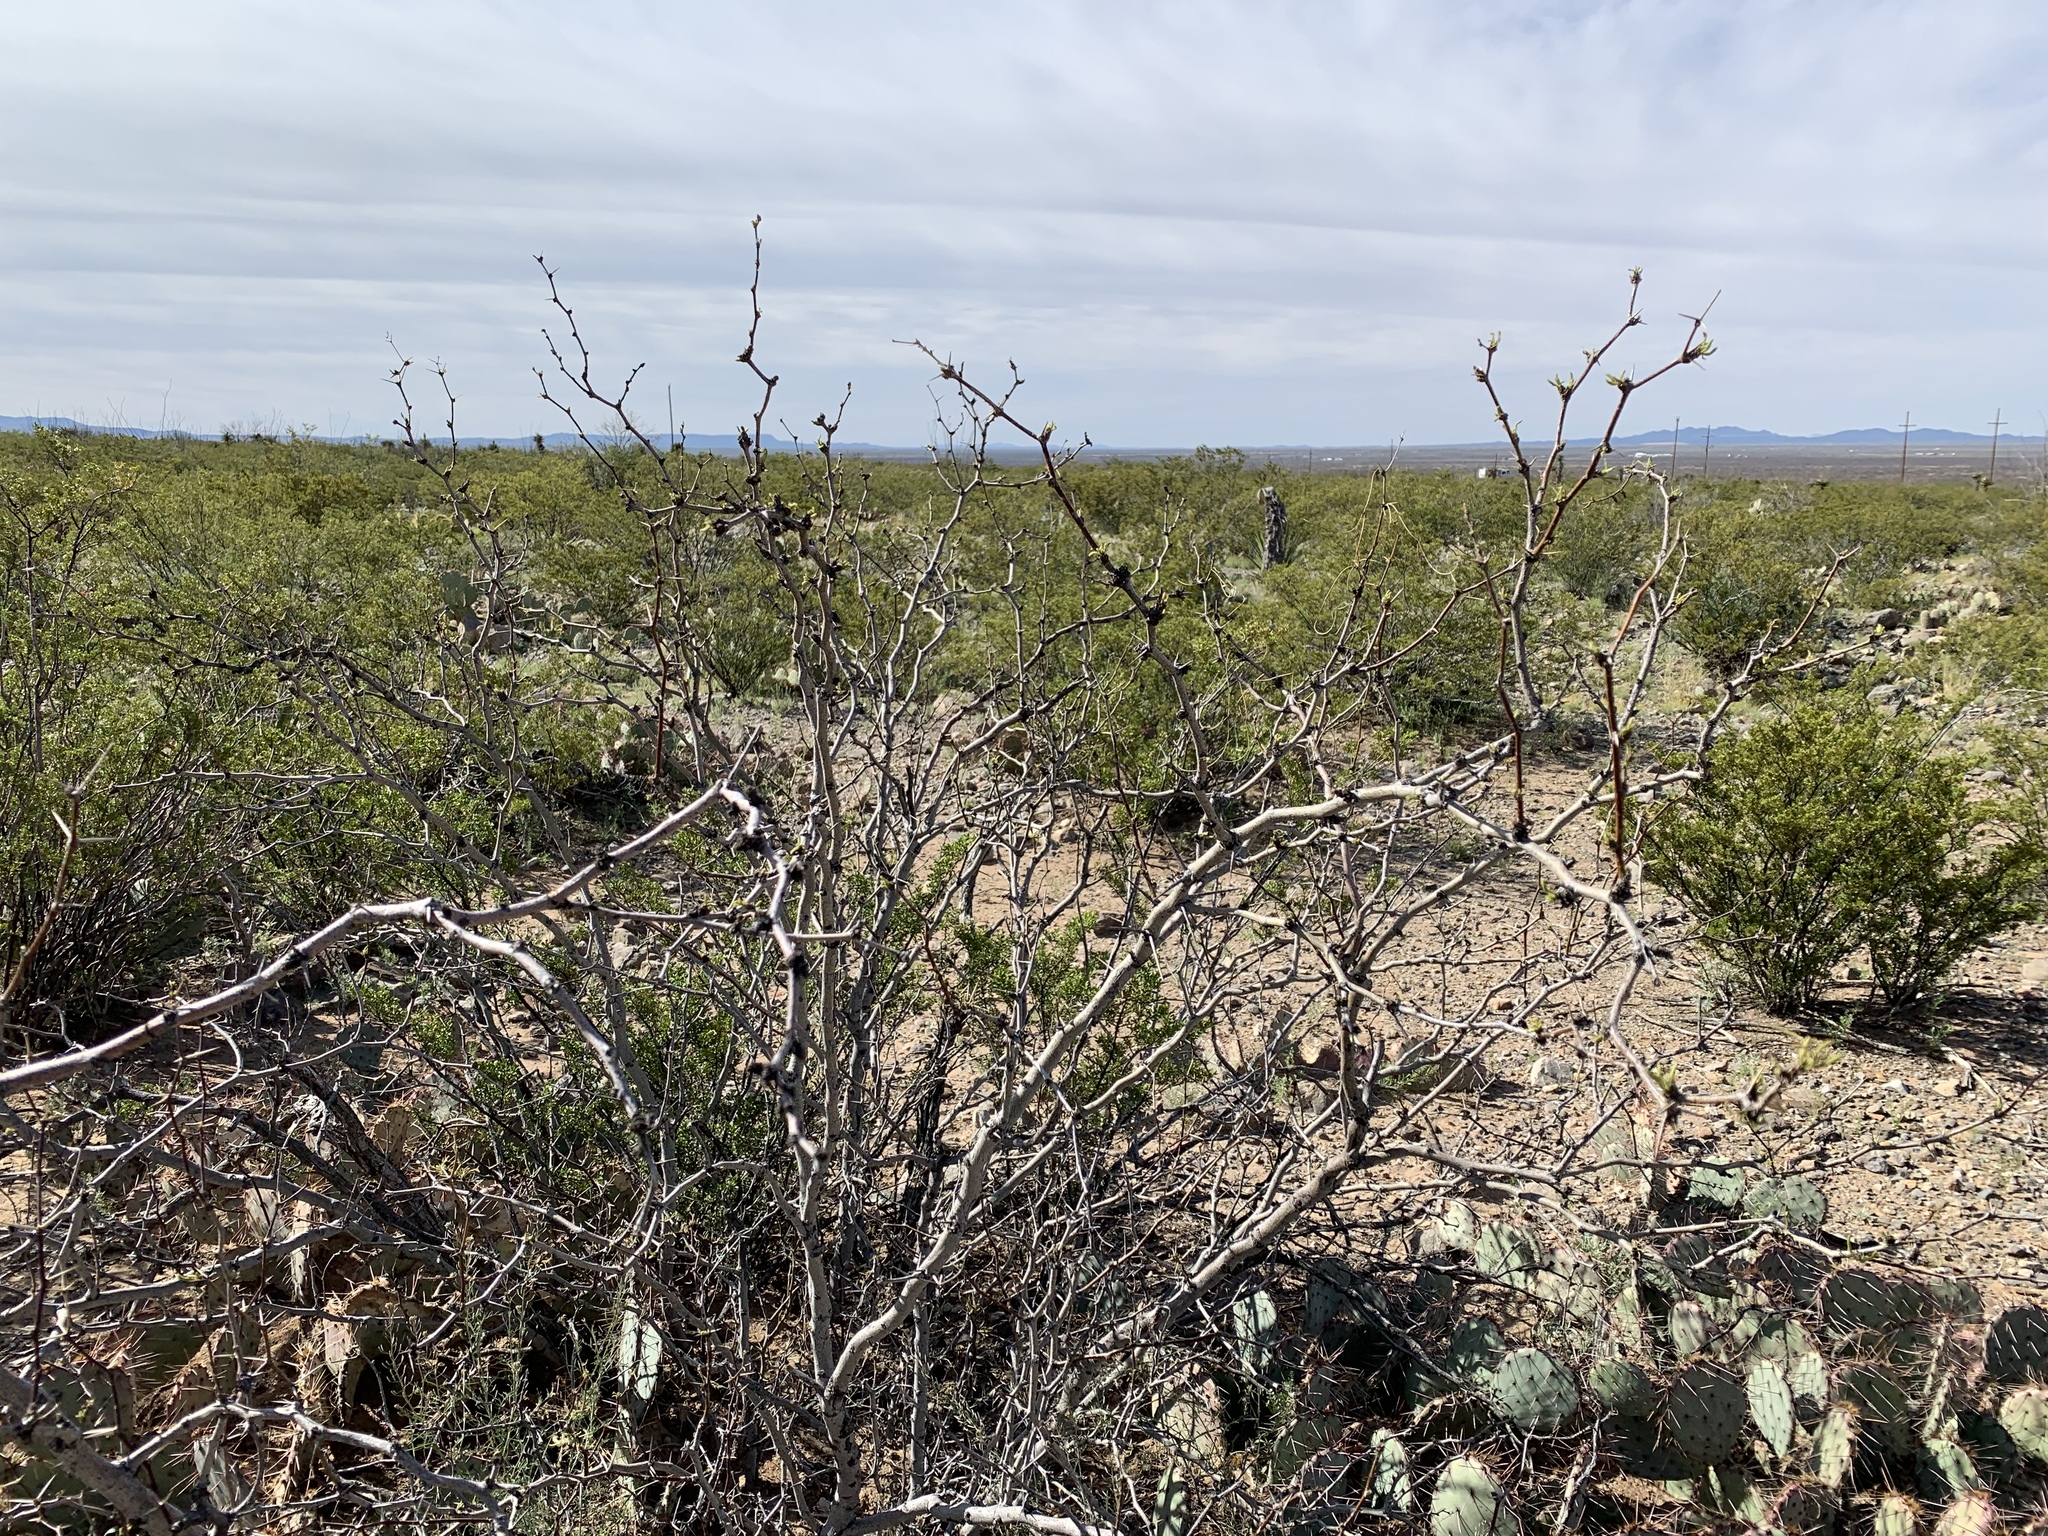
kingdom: Plantae
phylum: Tracheophyta
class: Magnoliopsida
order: Fabales
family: Fabaceae
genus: Prosopis
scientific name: Prosopis glandulosa
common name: Honey mesquite
